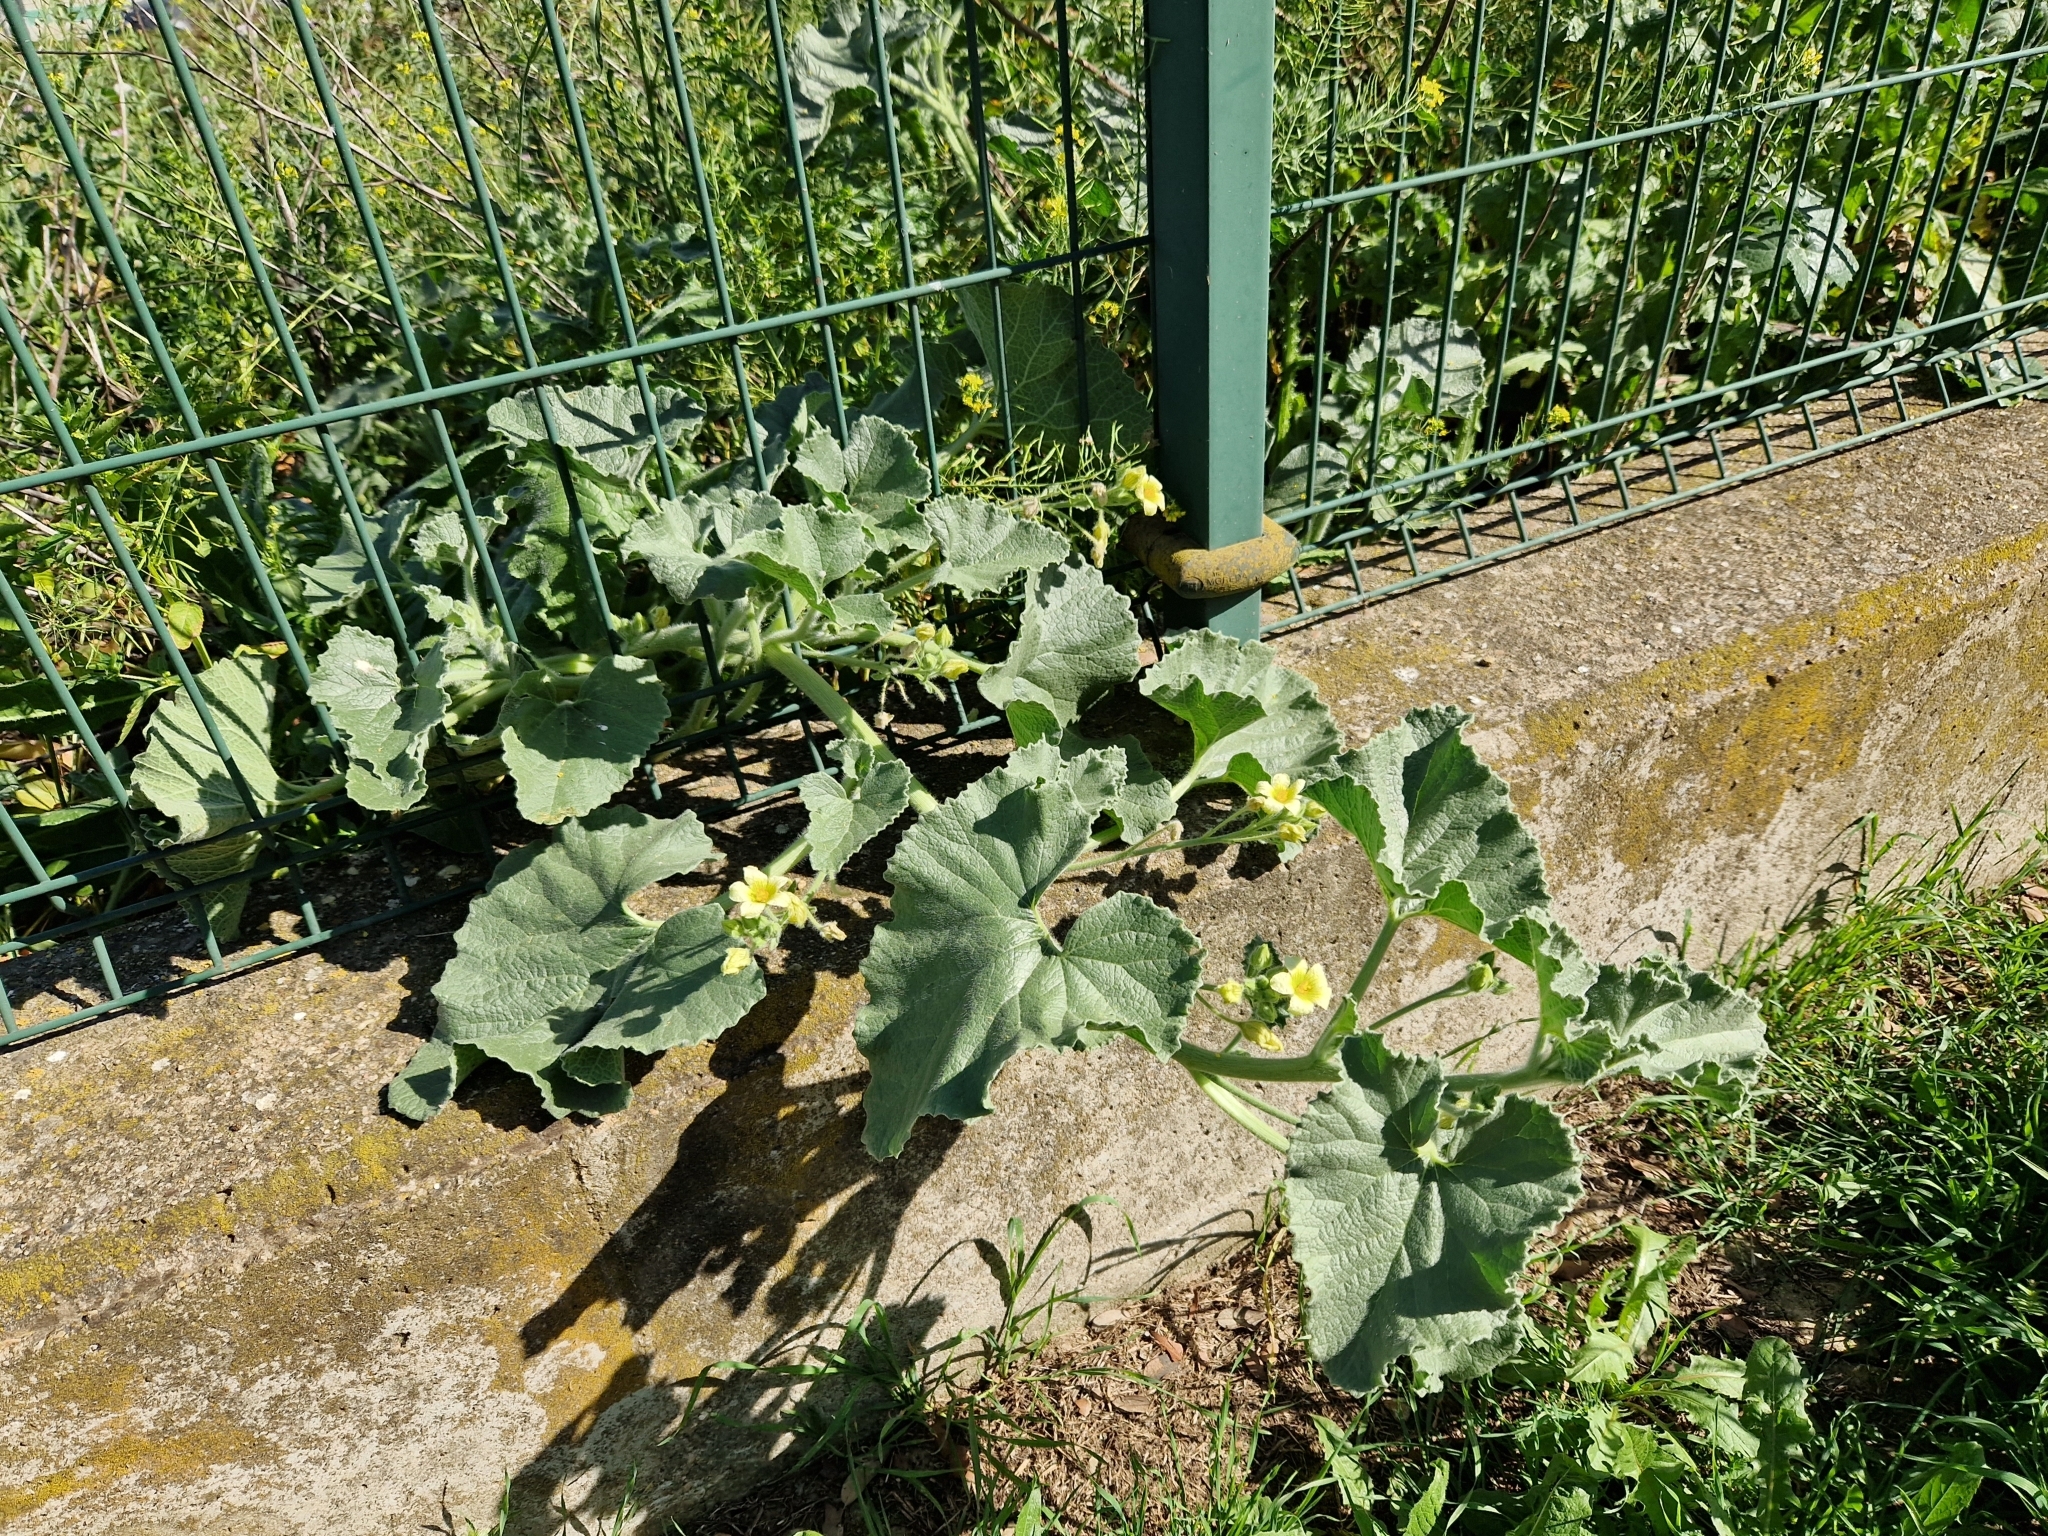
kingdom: Plantae
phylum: Tracheophyta
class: Magnoliopsida
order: Cucurbitales
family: Cucurbitaceae
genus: Ecballium
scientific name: Ecballium elaterium
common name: Squirting cucumber
